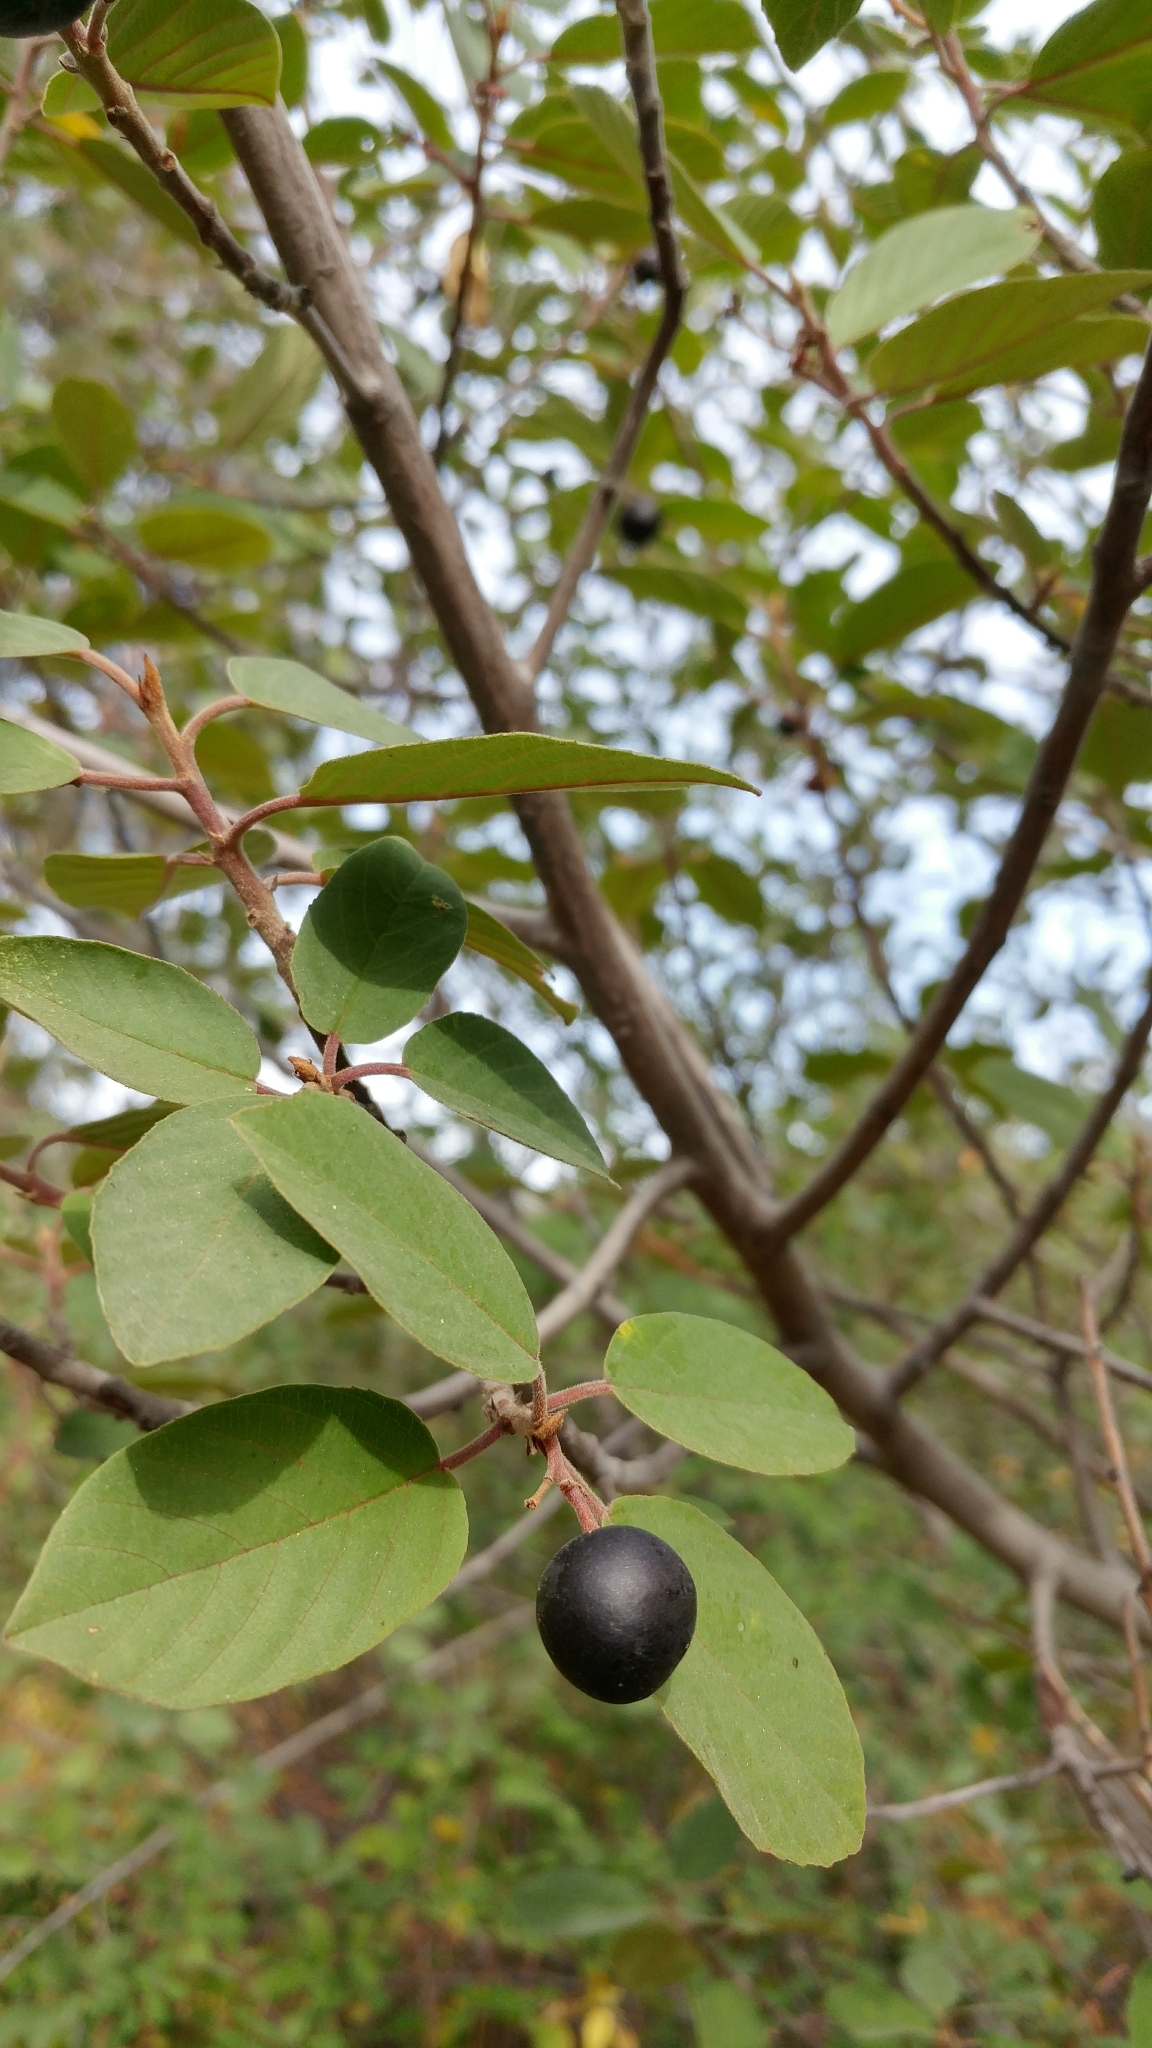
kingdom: Plantae
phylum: Tracheophyta
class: Magnoliopsida
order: Rosales
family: Rhamnaceae
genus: Frangula
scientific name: Frangula californica
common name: California buckthorn
